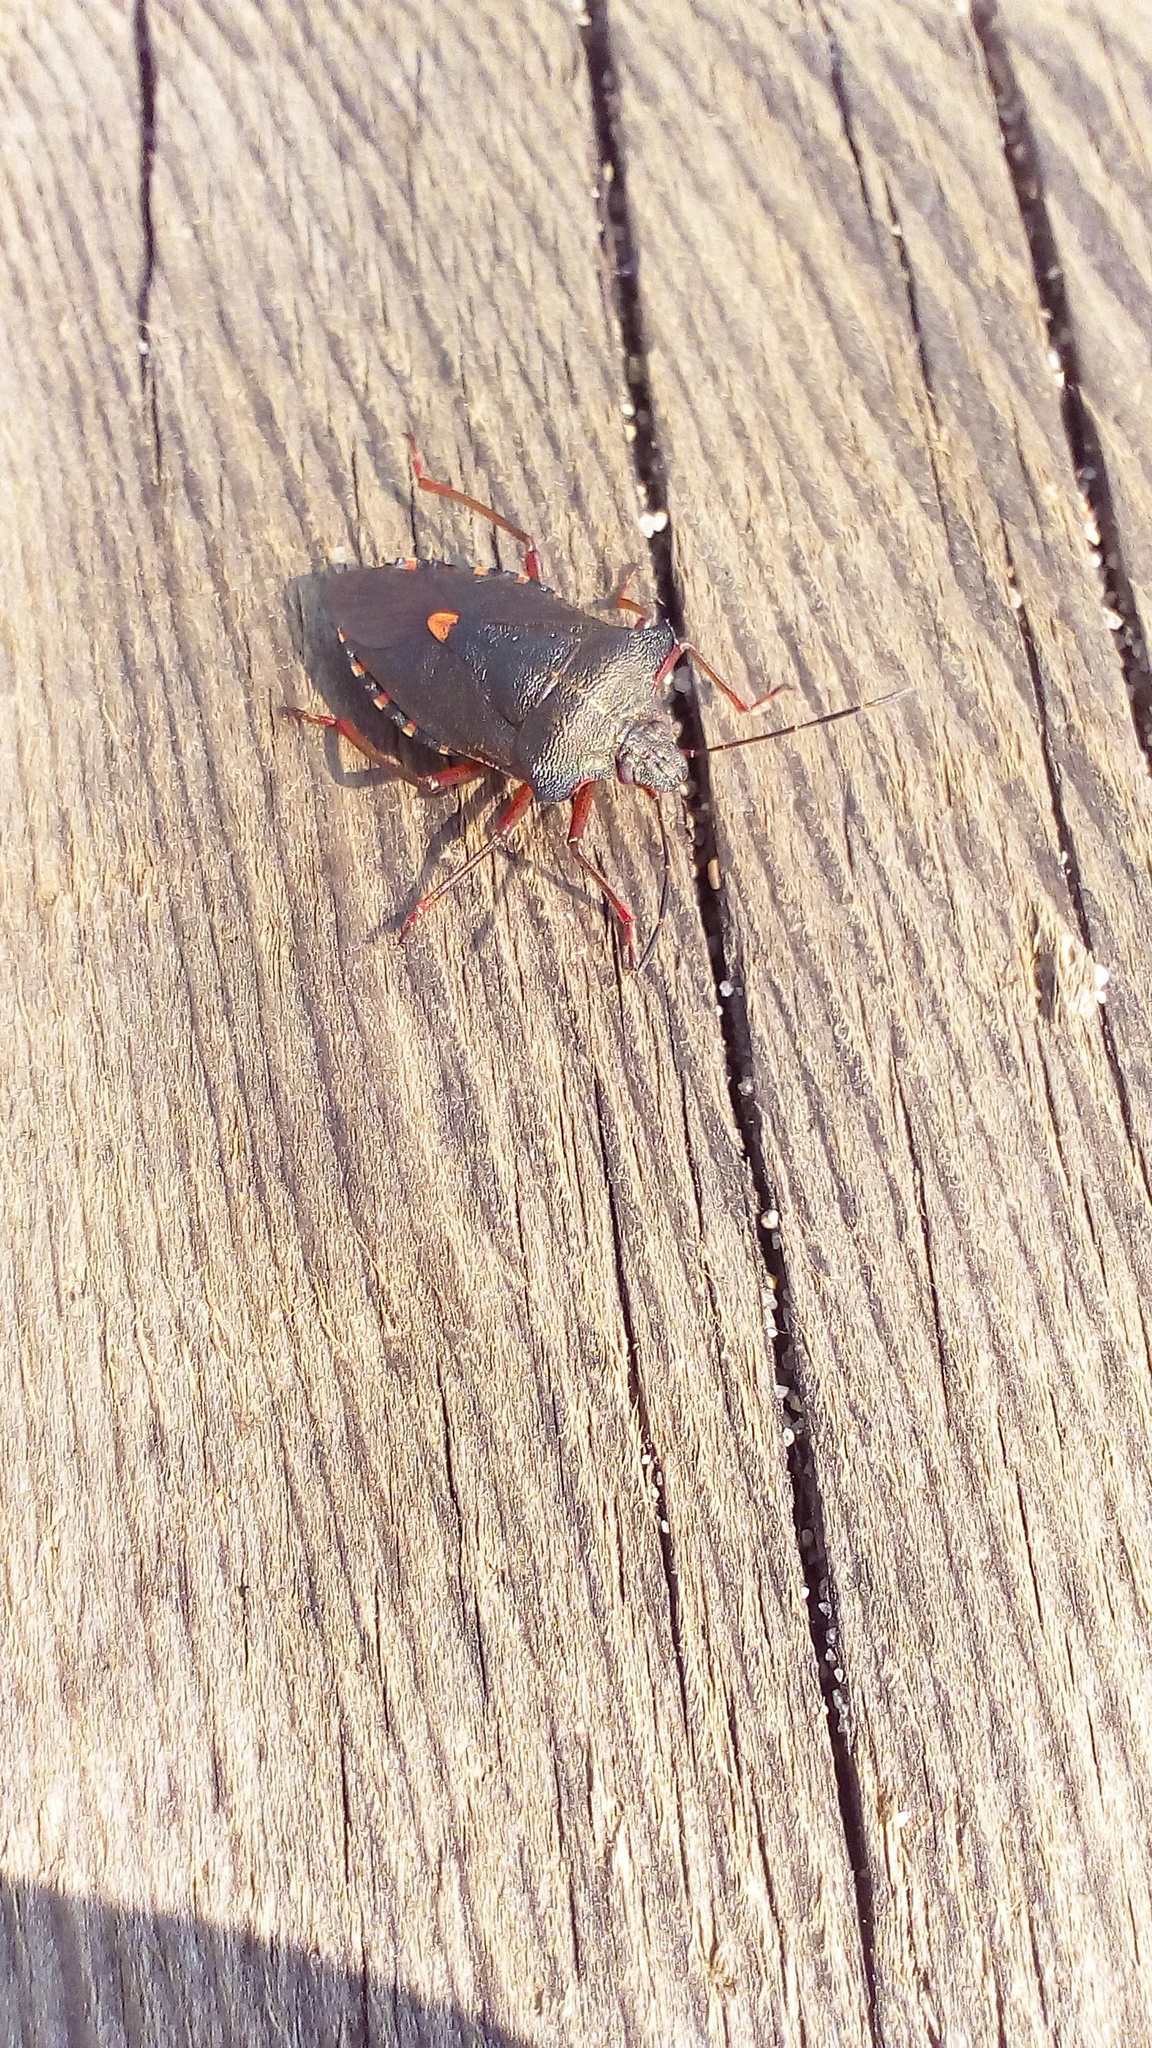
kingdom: Animalia
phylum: Arthropoda
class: Insecta
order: Hemiptera
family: Pentatomidae
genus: Pentatoma
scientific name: Pentatoma rufipes
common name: Forest bug
